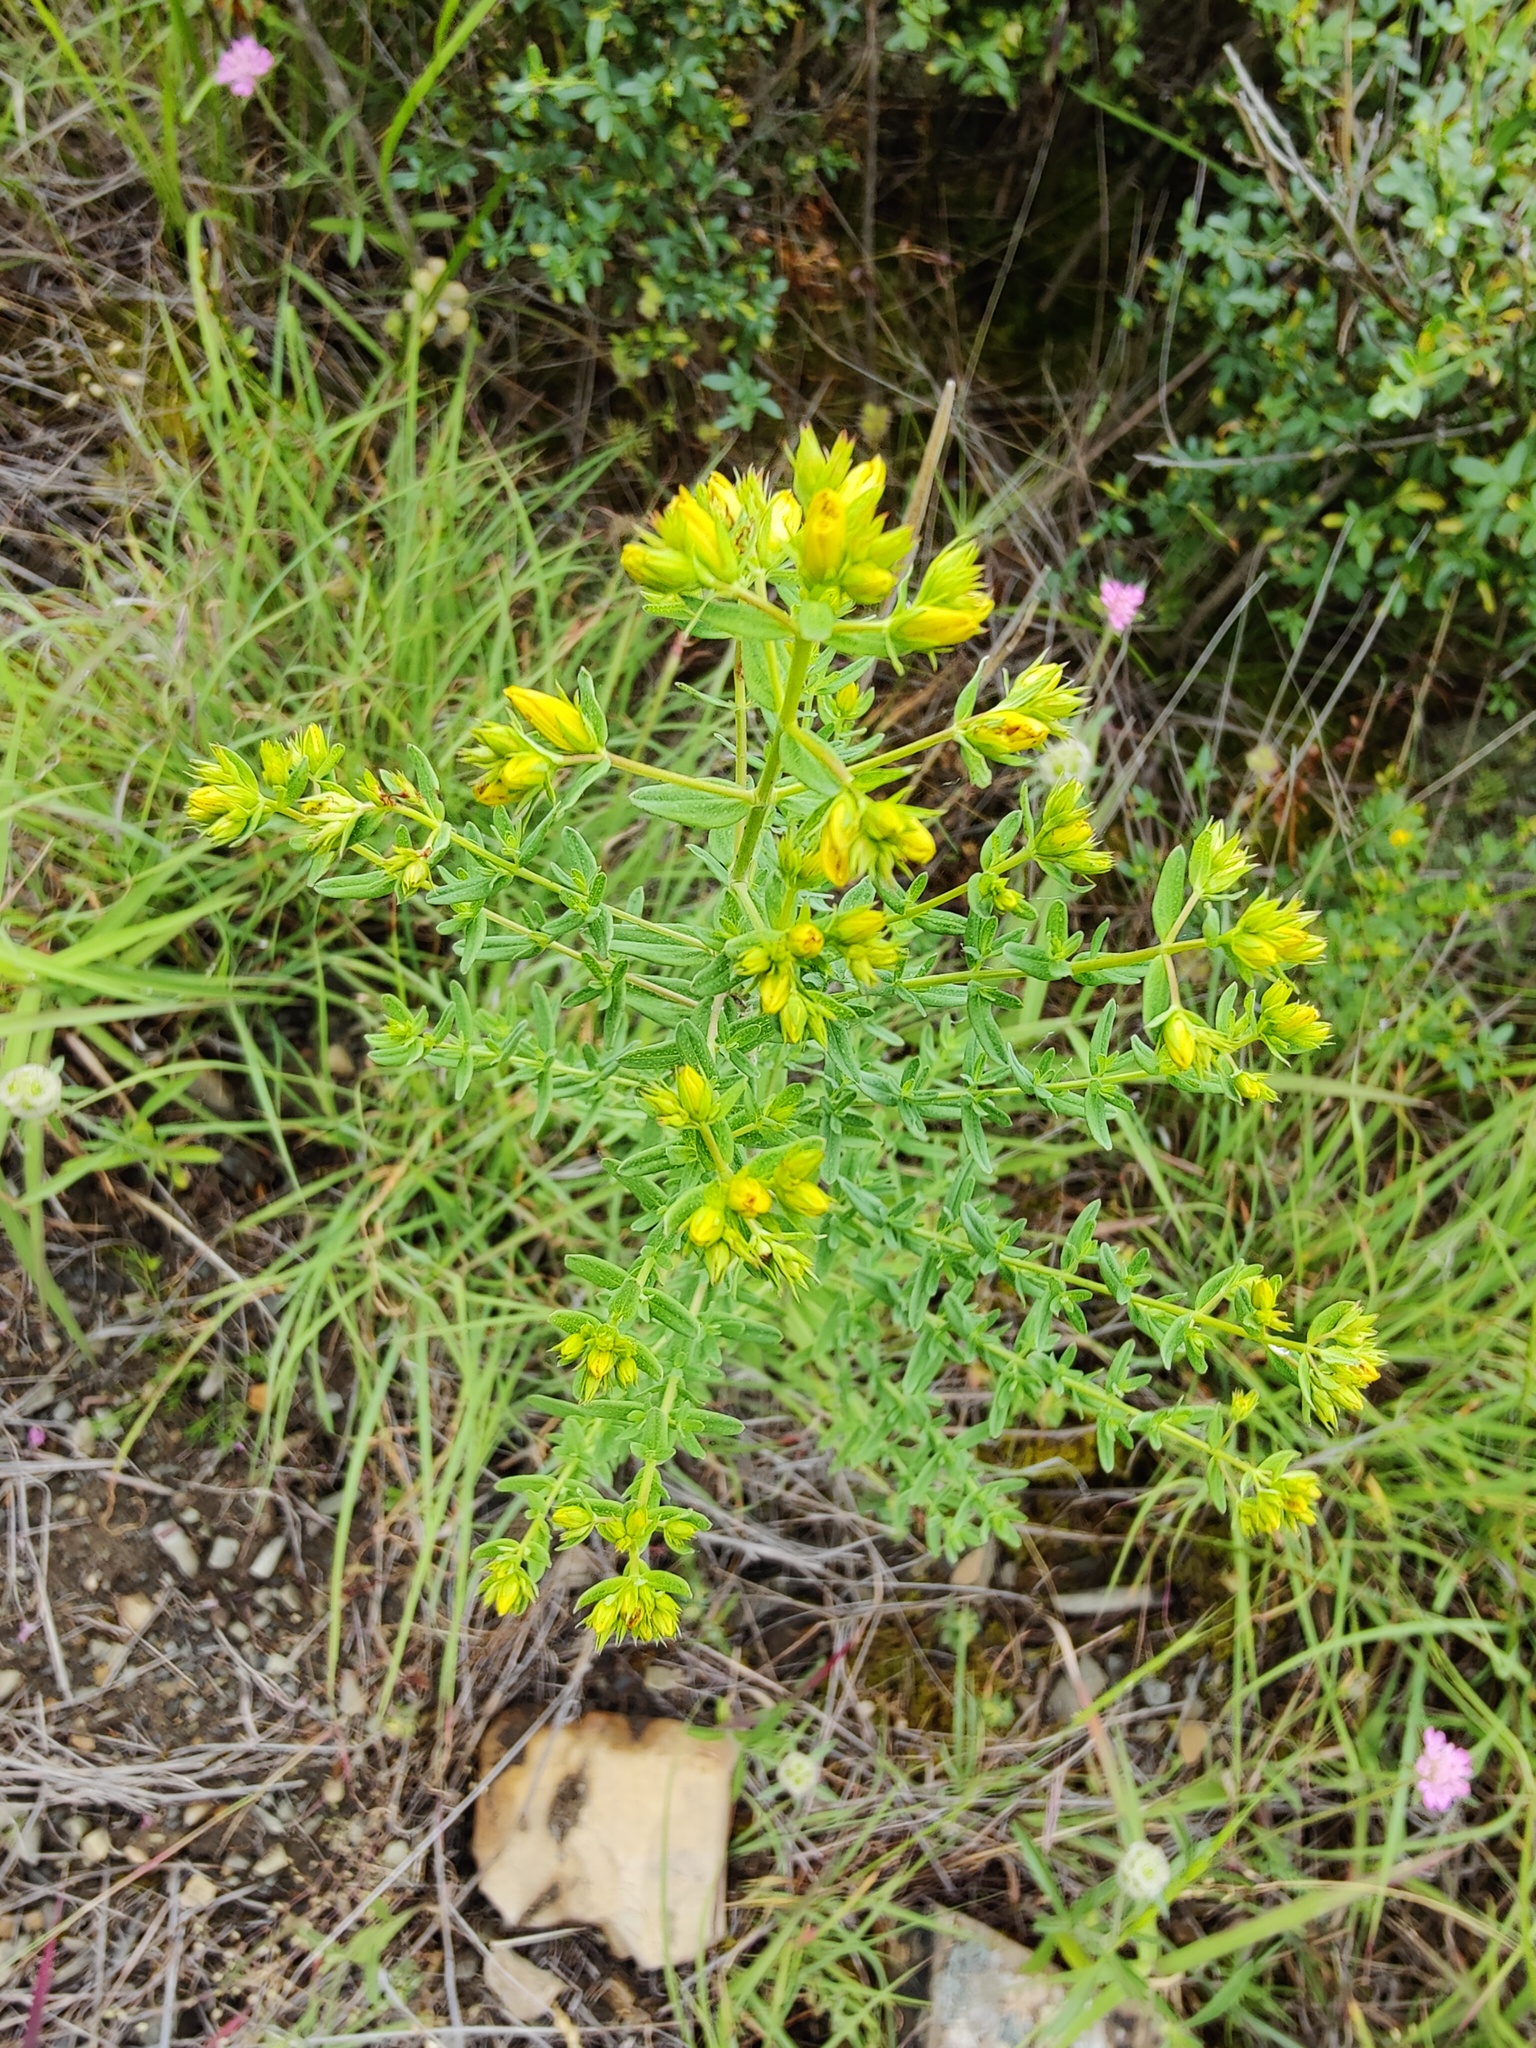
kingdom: Plantae
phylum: Tracheophyta
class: Magnoliopsida
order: Malpighiales
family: Hypericaceae
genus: Hypericum
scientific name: Hypericum perforatum
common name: Common st. johnswort
